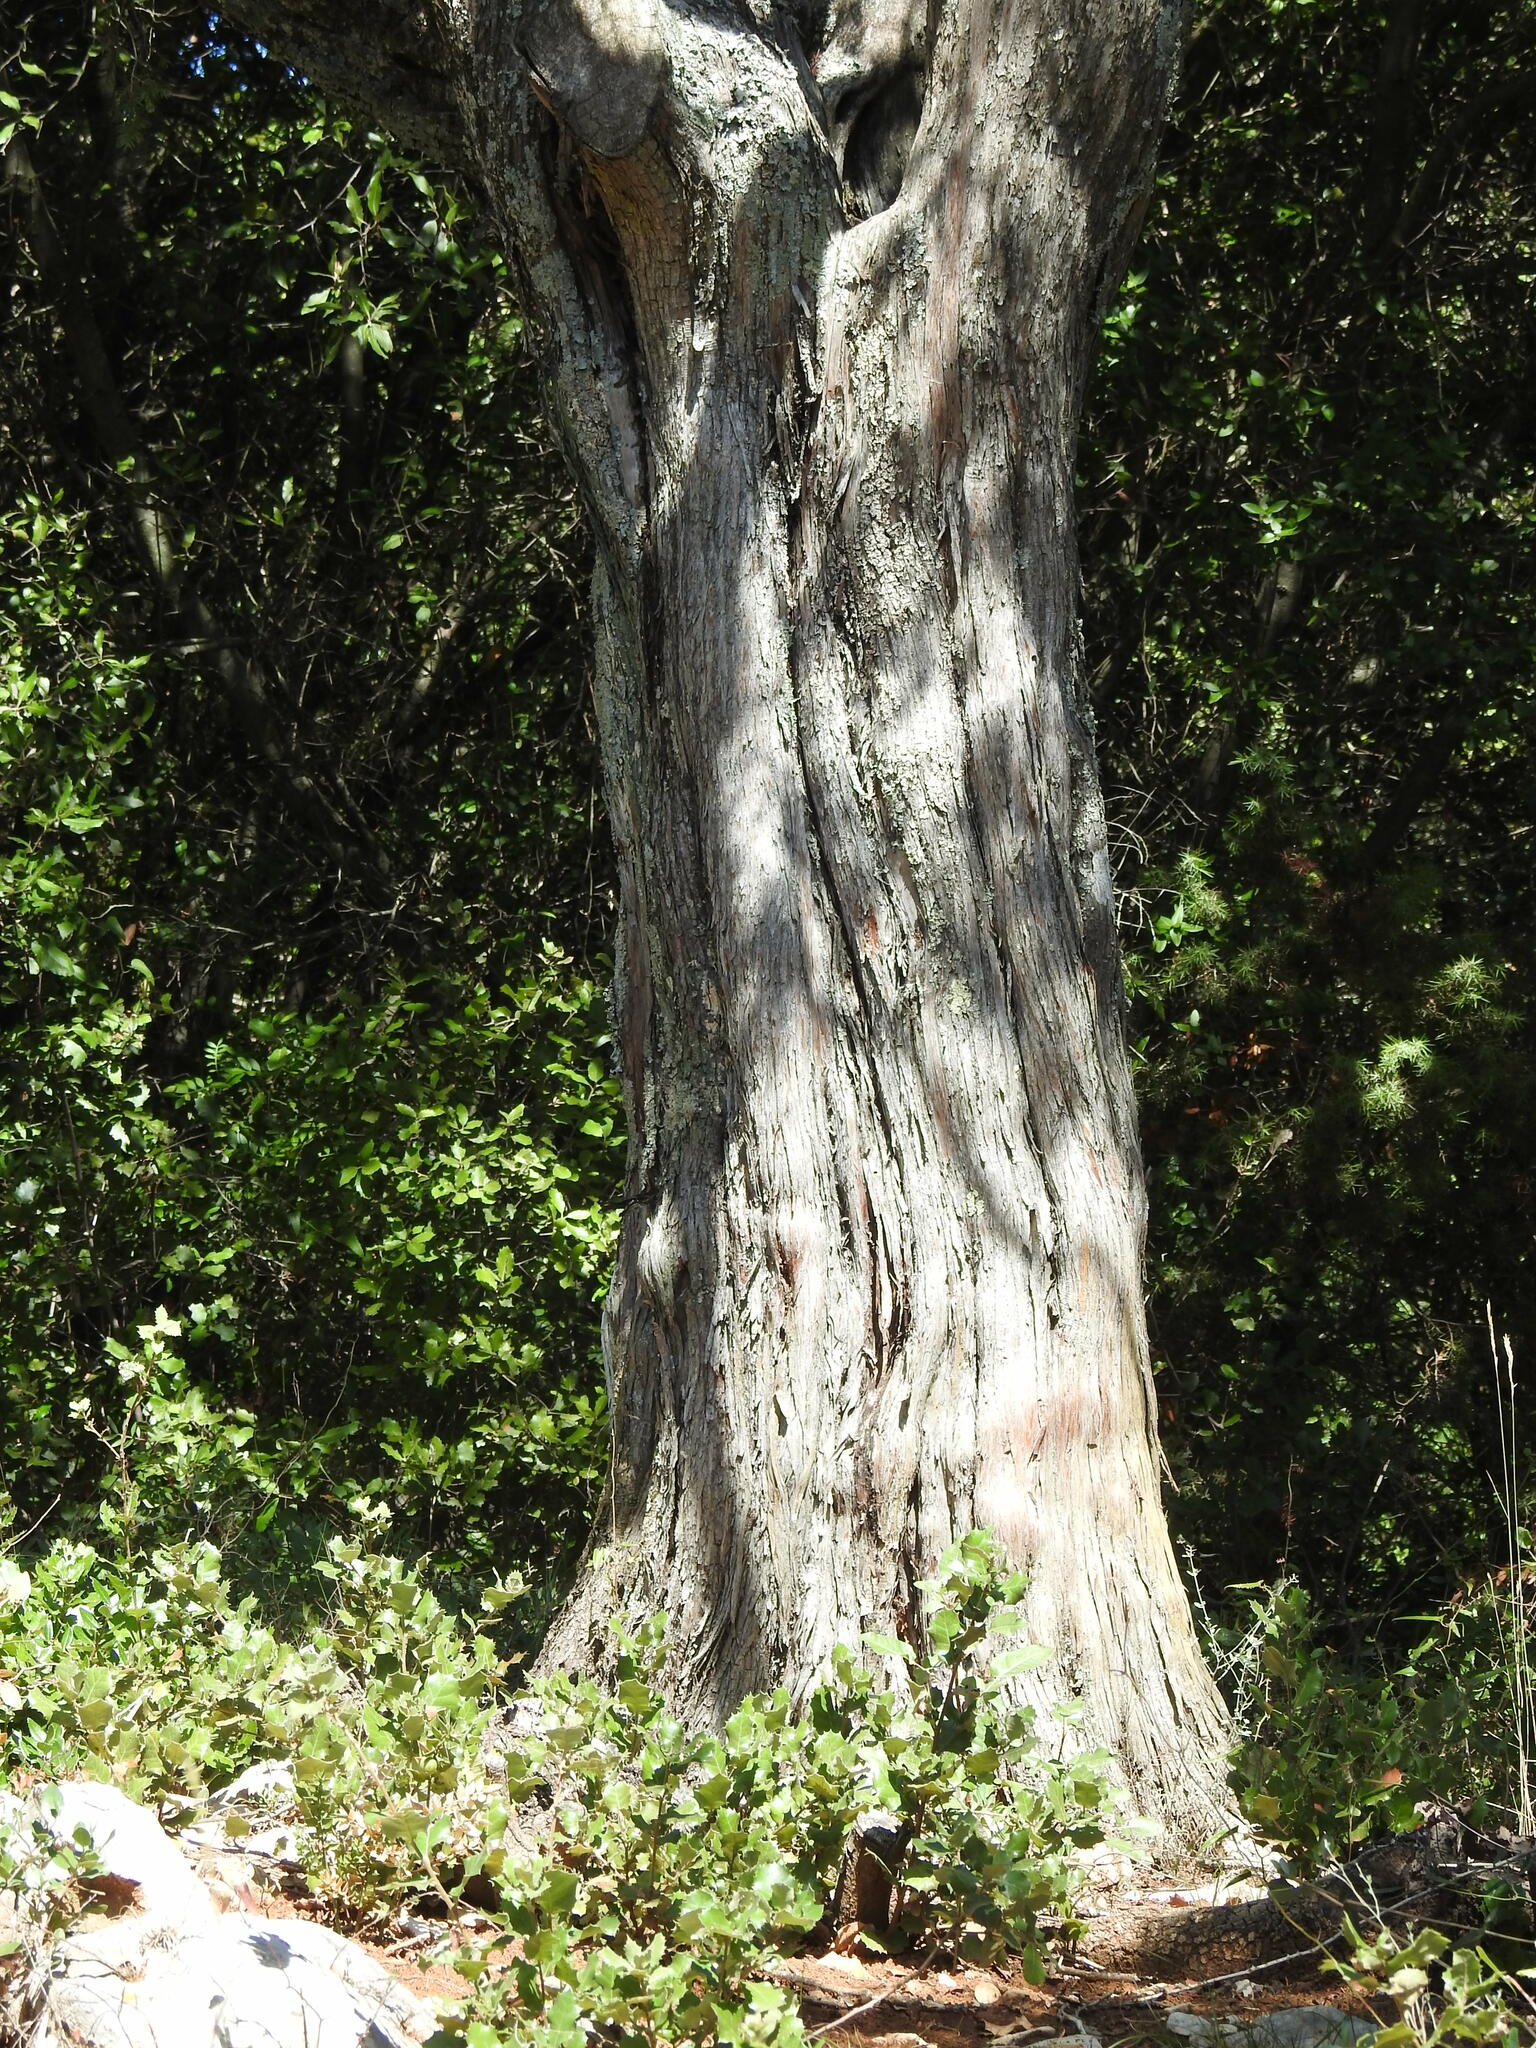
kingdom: Plantae
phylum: Tracheophyta
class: Pinopsida
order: Pinales
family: Cupressaceae
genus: Juniperus
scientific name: Juniperus oxycedrus
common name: Prickly juniper
